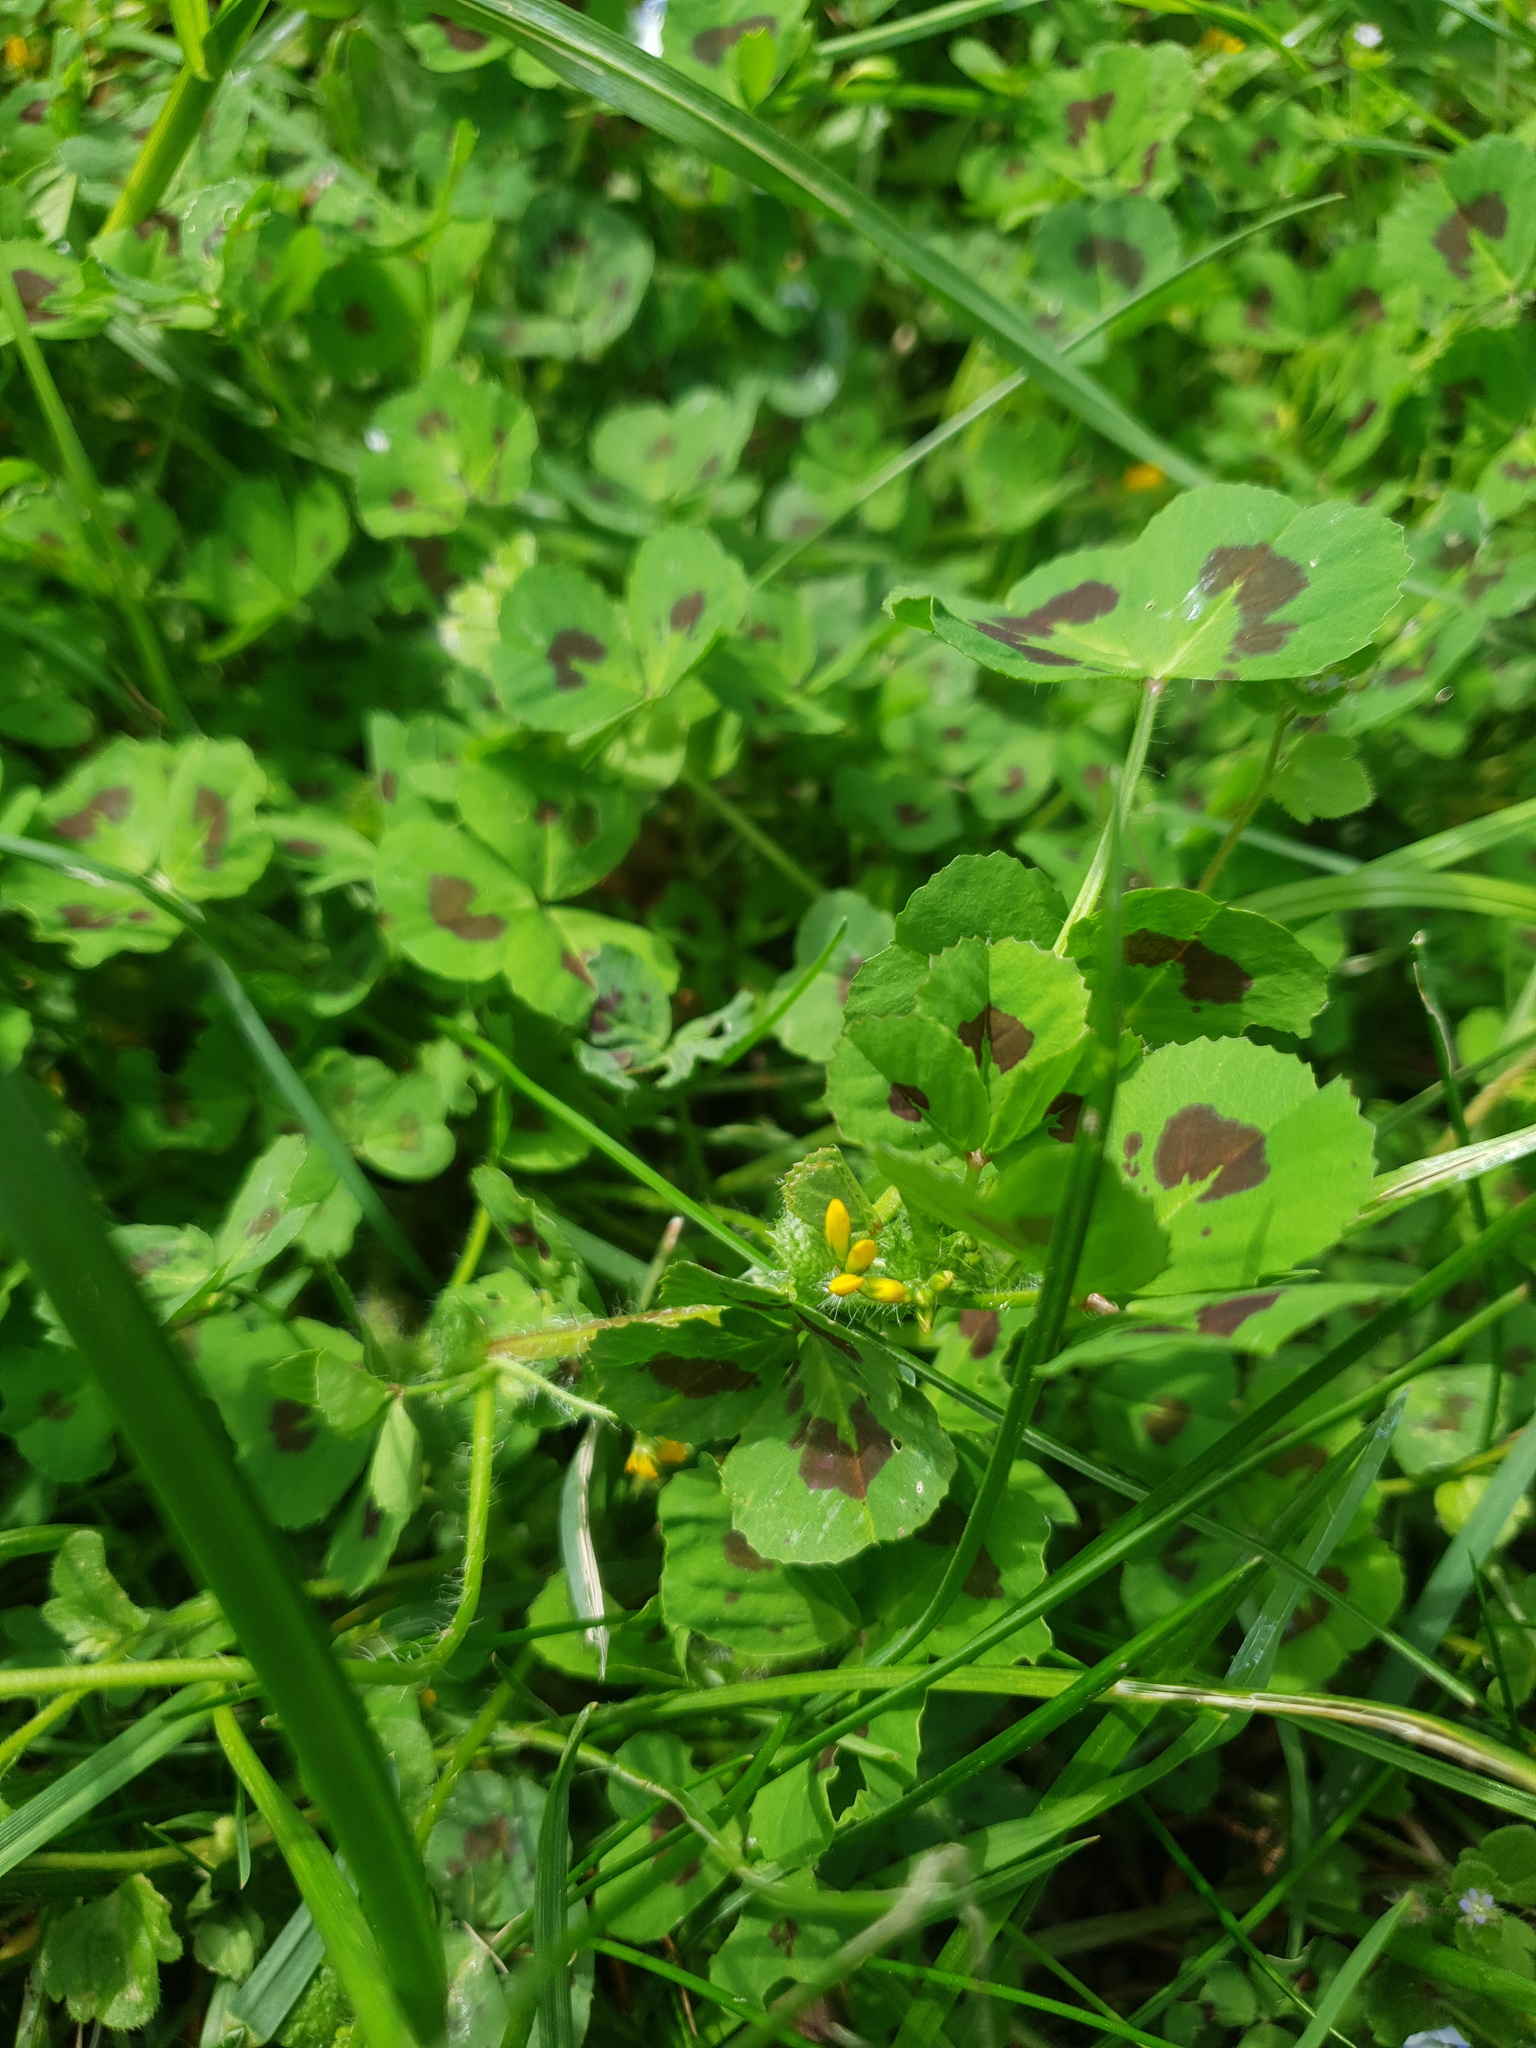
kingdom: Plantae
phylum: Tracheophyta
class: Magnoliopsida
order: Fabales
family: Fabaceae
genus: Medicago
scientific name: Medicago arabica
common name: Spotted medick
